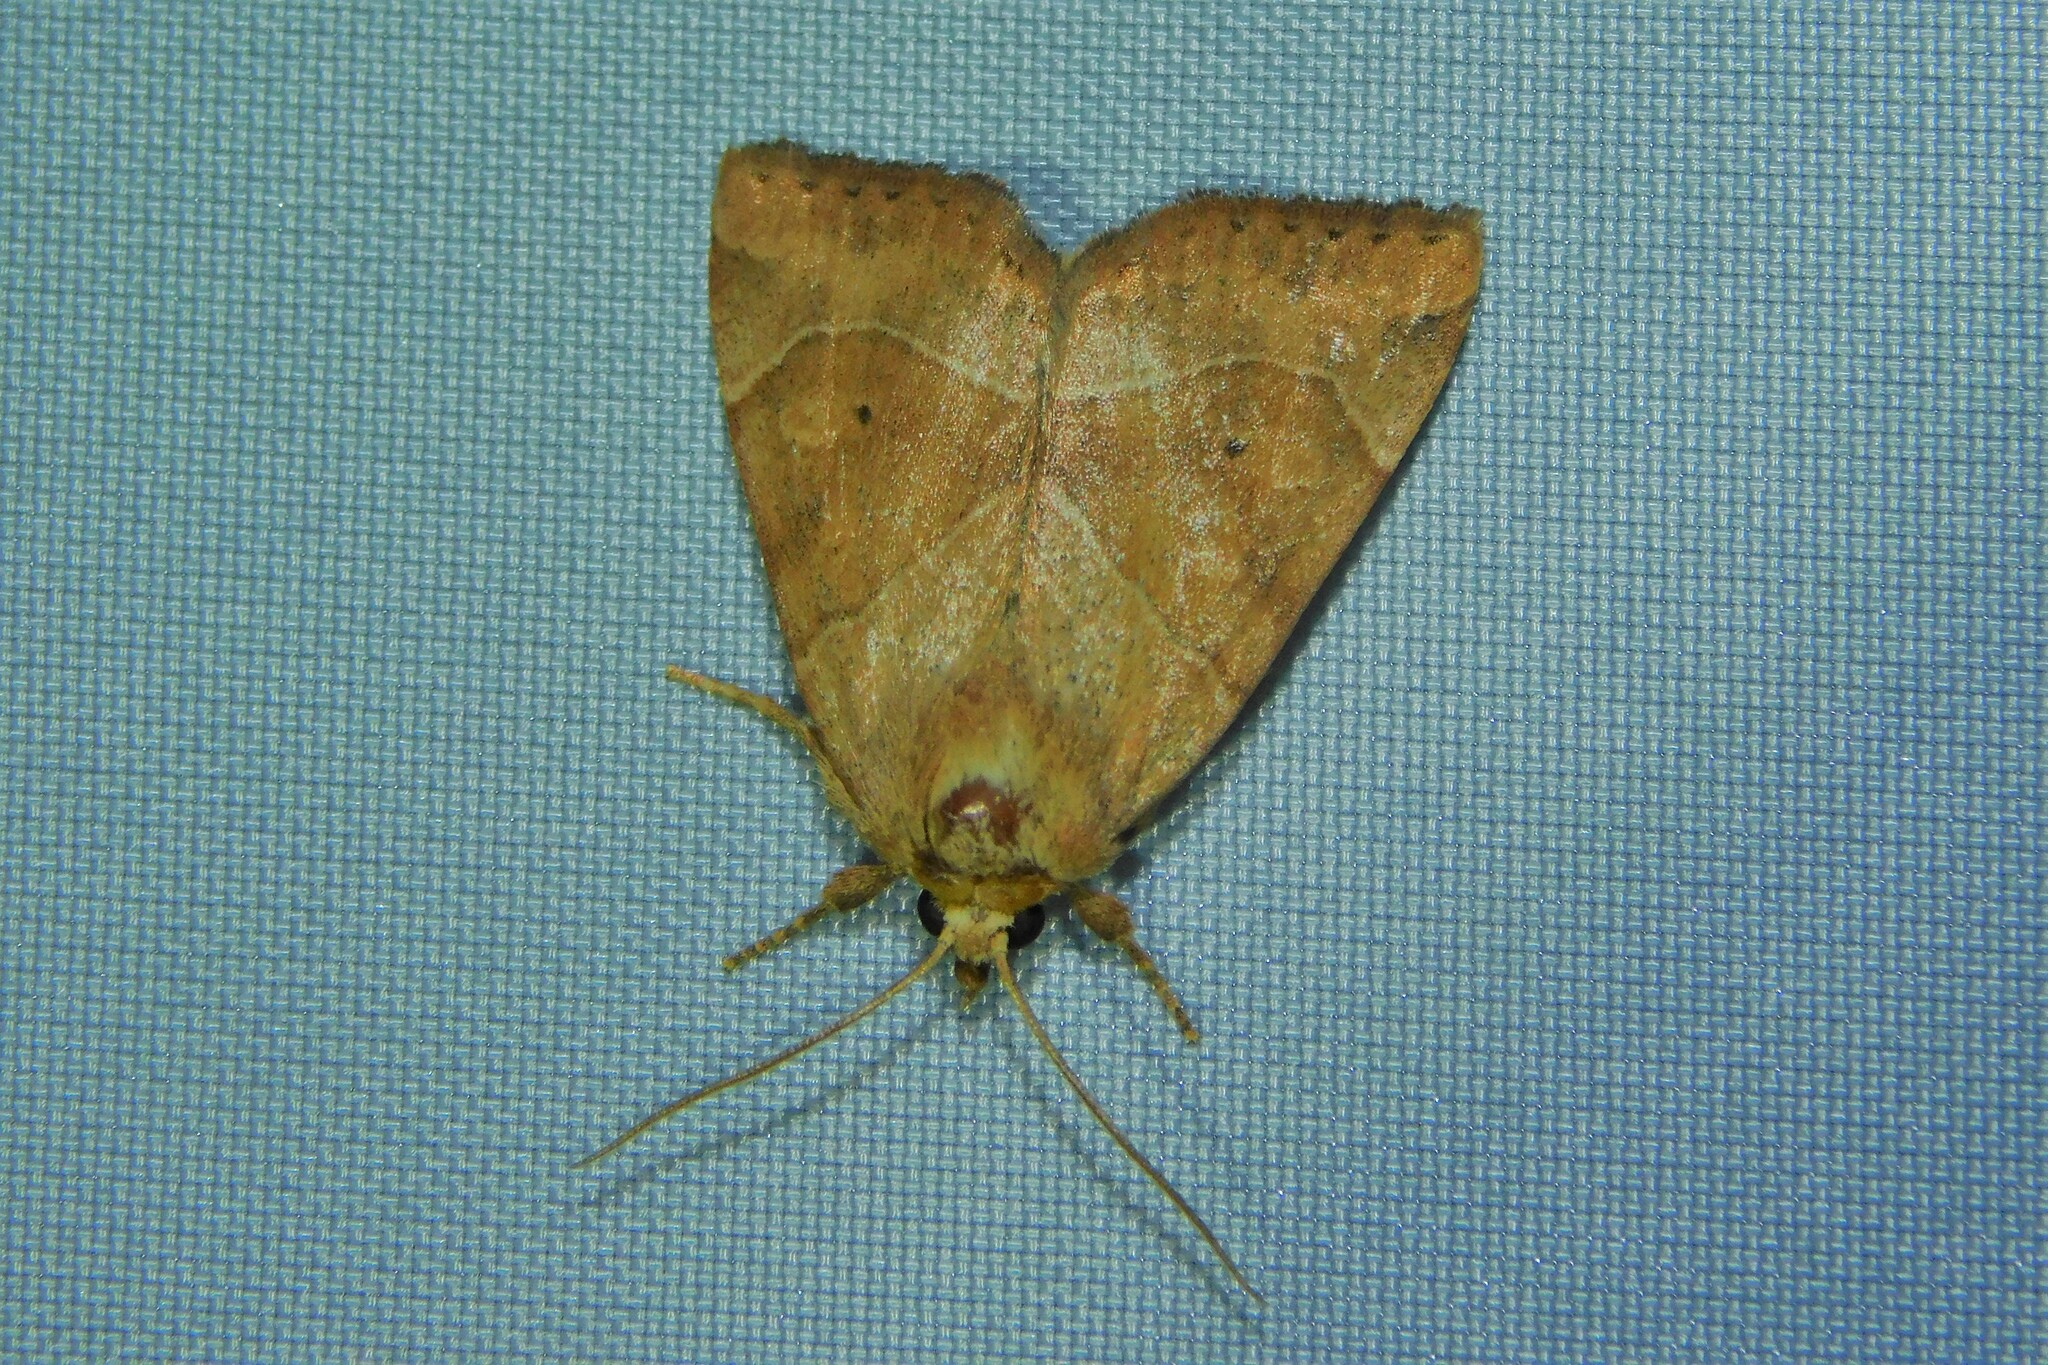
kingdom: Animalia
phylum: Arthropoda
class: Insecta
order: Lepidoptera
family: Noctuidae
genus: Cosmia
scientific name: Cosmia trapezina
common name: Dun-bar
